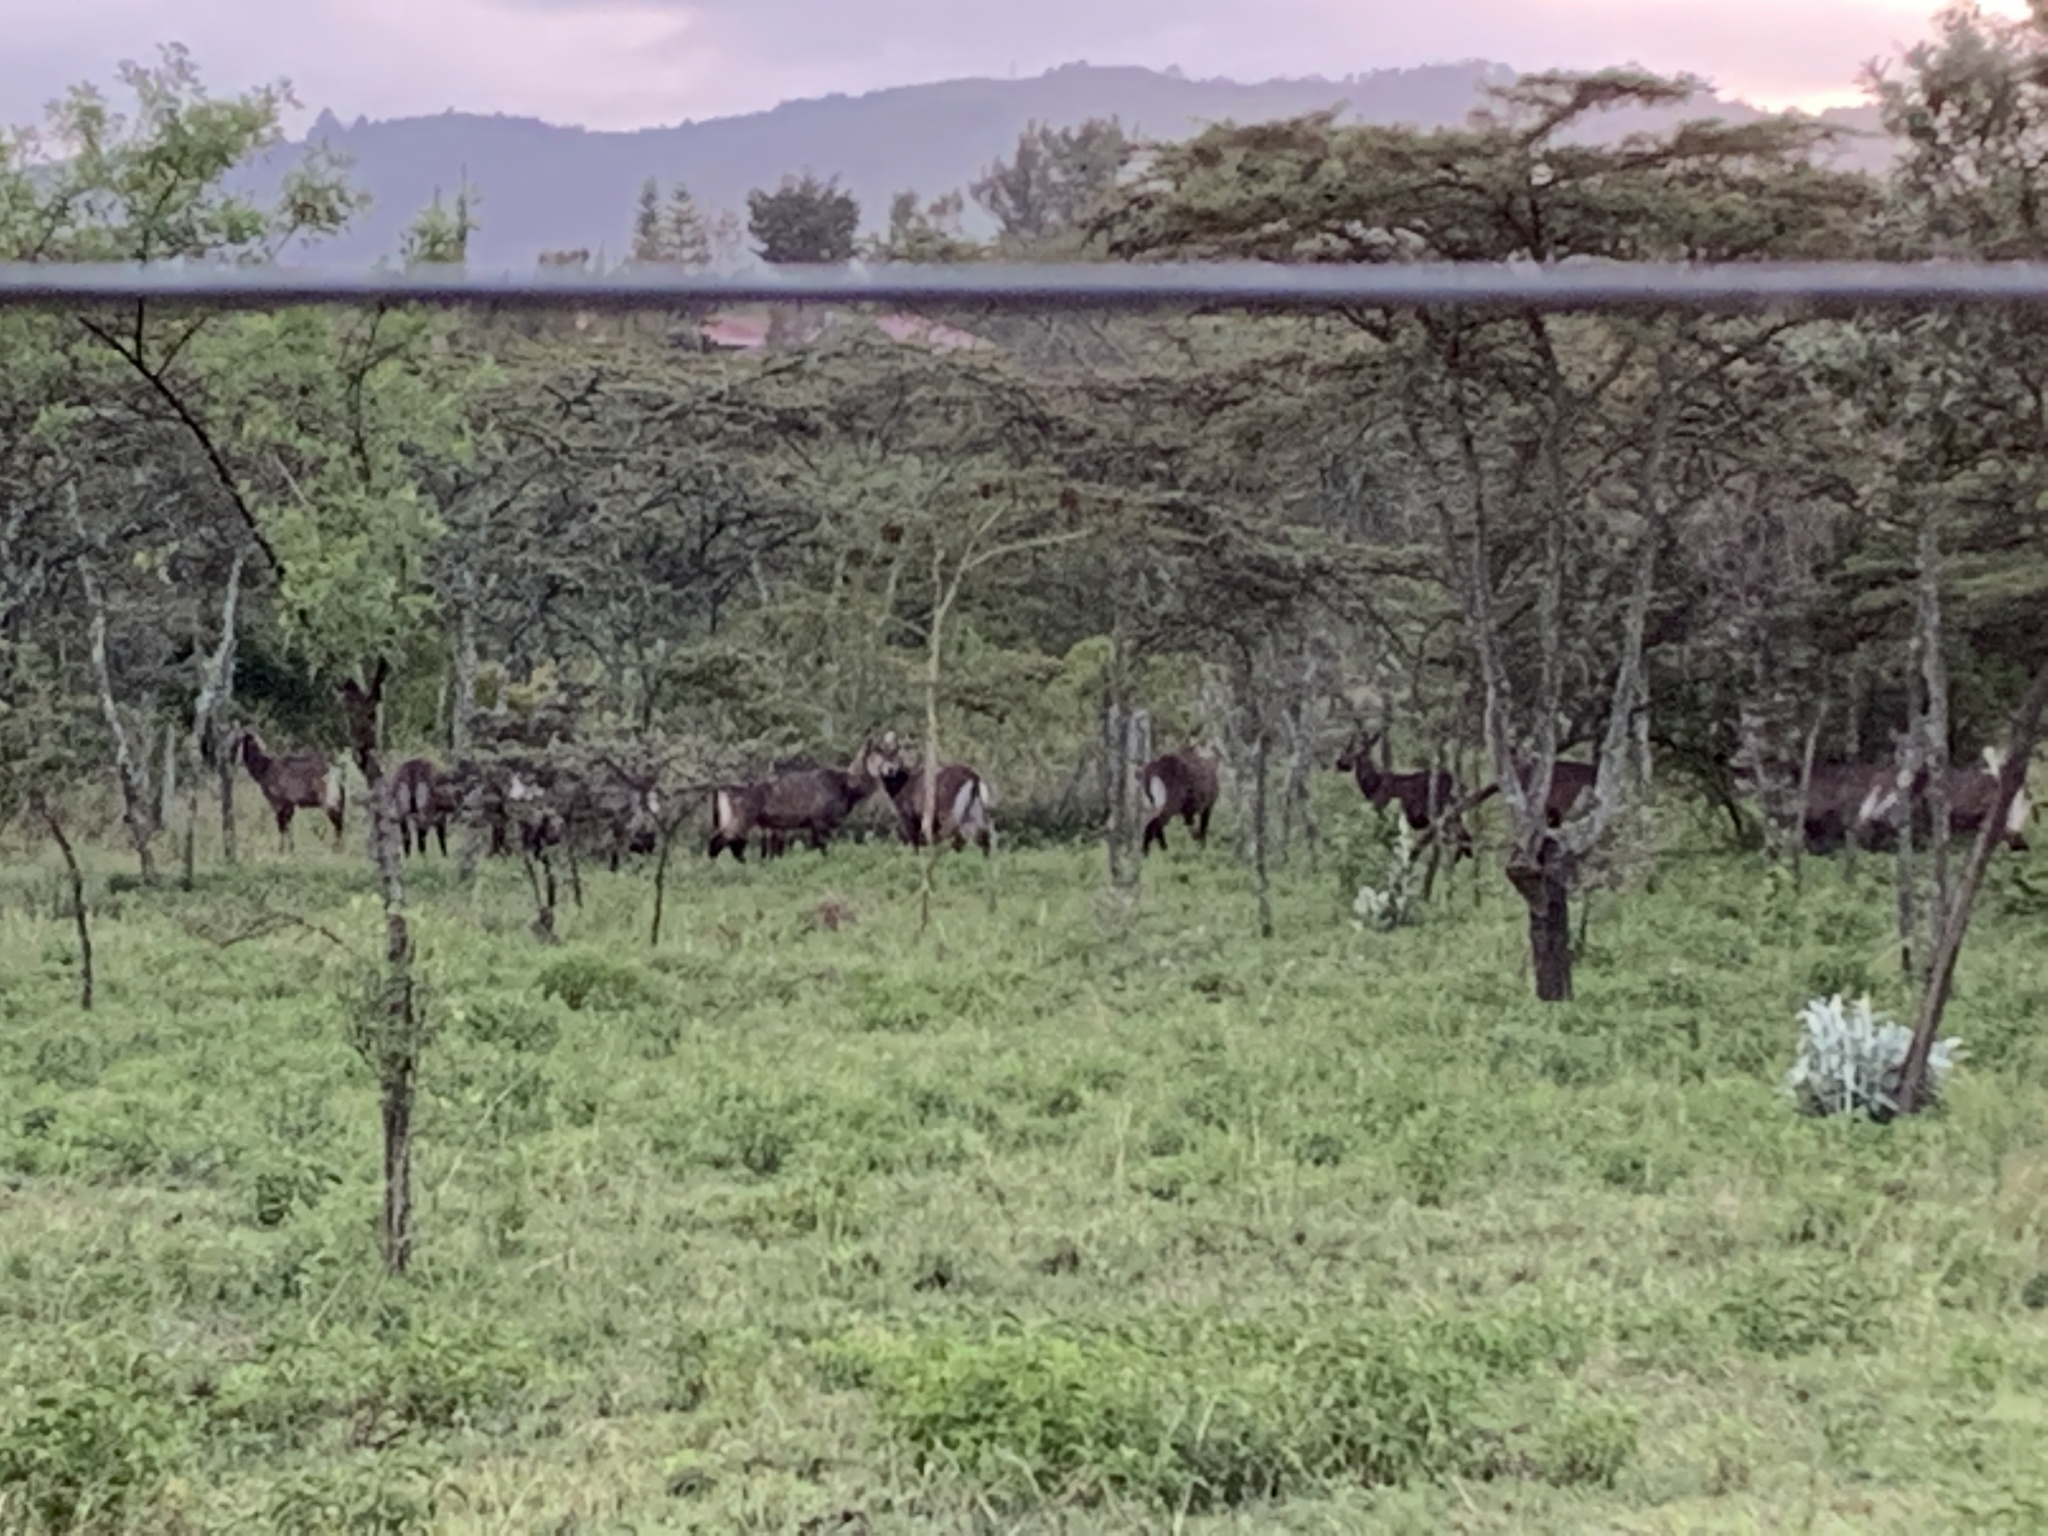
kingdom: Animalia
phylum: Chordata
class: Mammalia
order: Artiodactyla
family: Bovidae
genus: Kobus
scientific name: Kobus ellipsiprymnus
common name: Waterbuck
